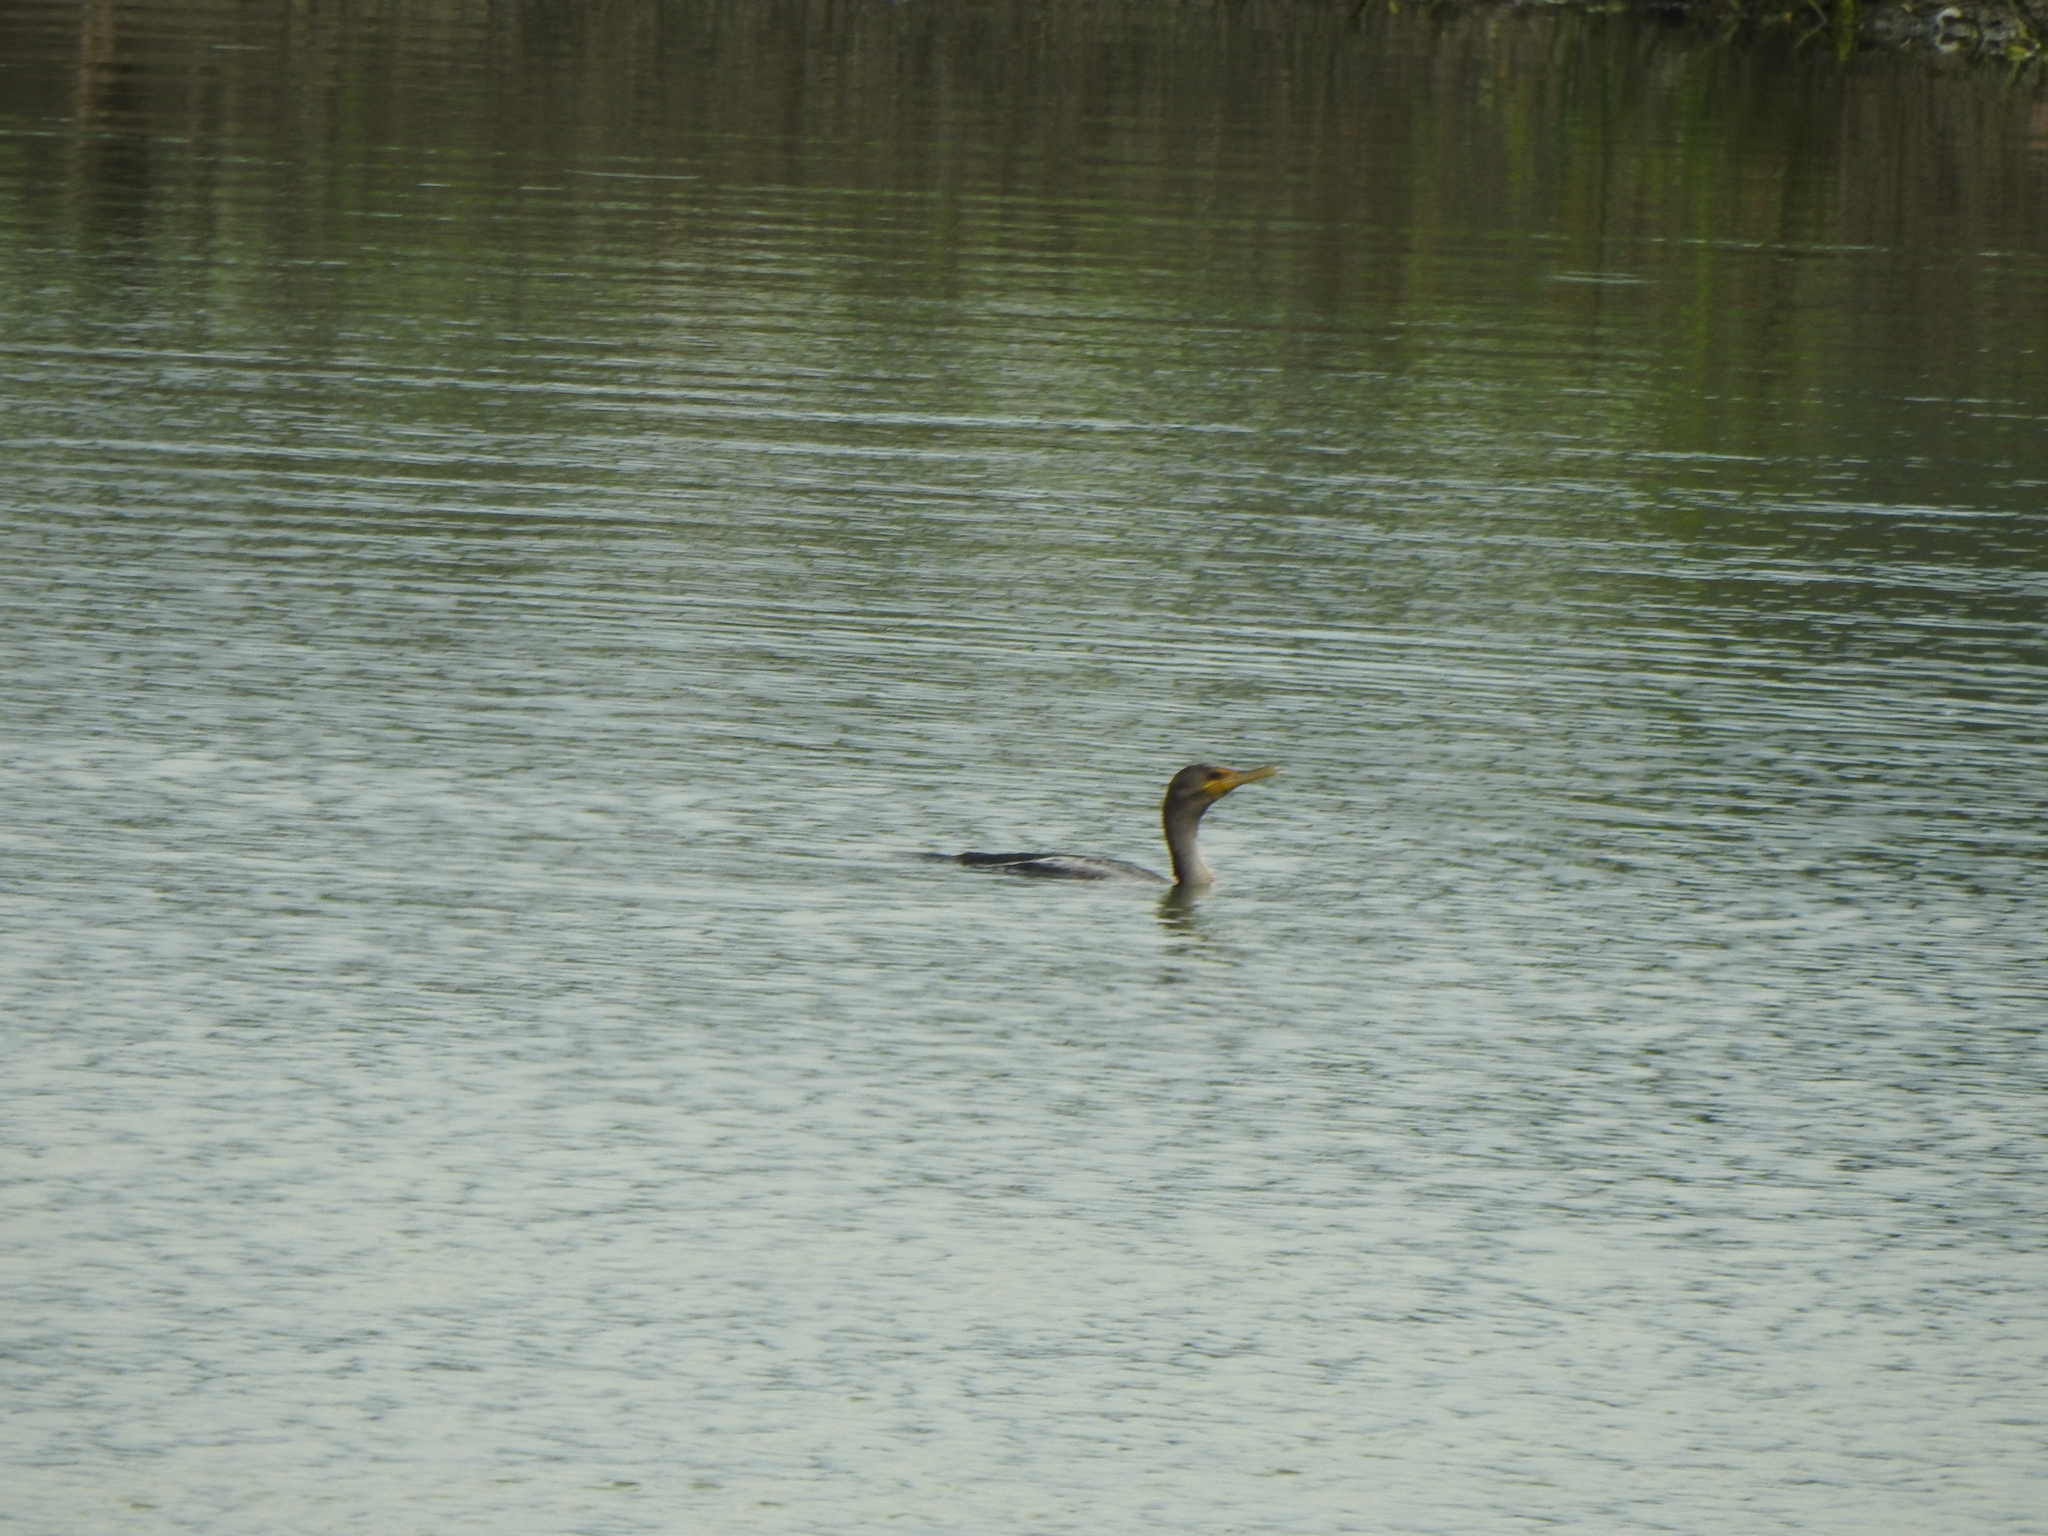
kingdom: Animalia
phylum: Chordata
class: Aves
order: Suliformes
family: Phalacrocoracidae
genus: Phalacrocorax
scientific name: Phalacrocorax auritus
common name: Double-crested cormorant
